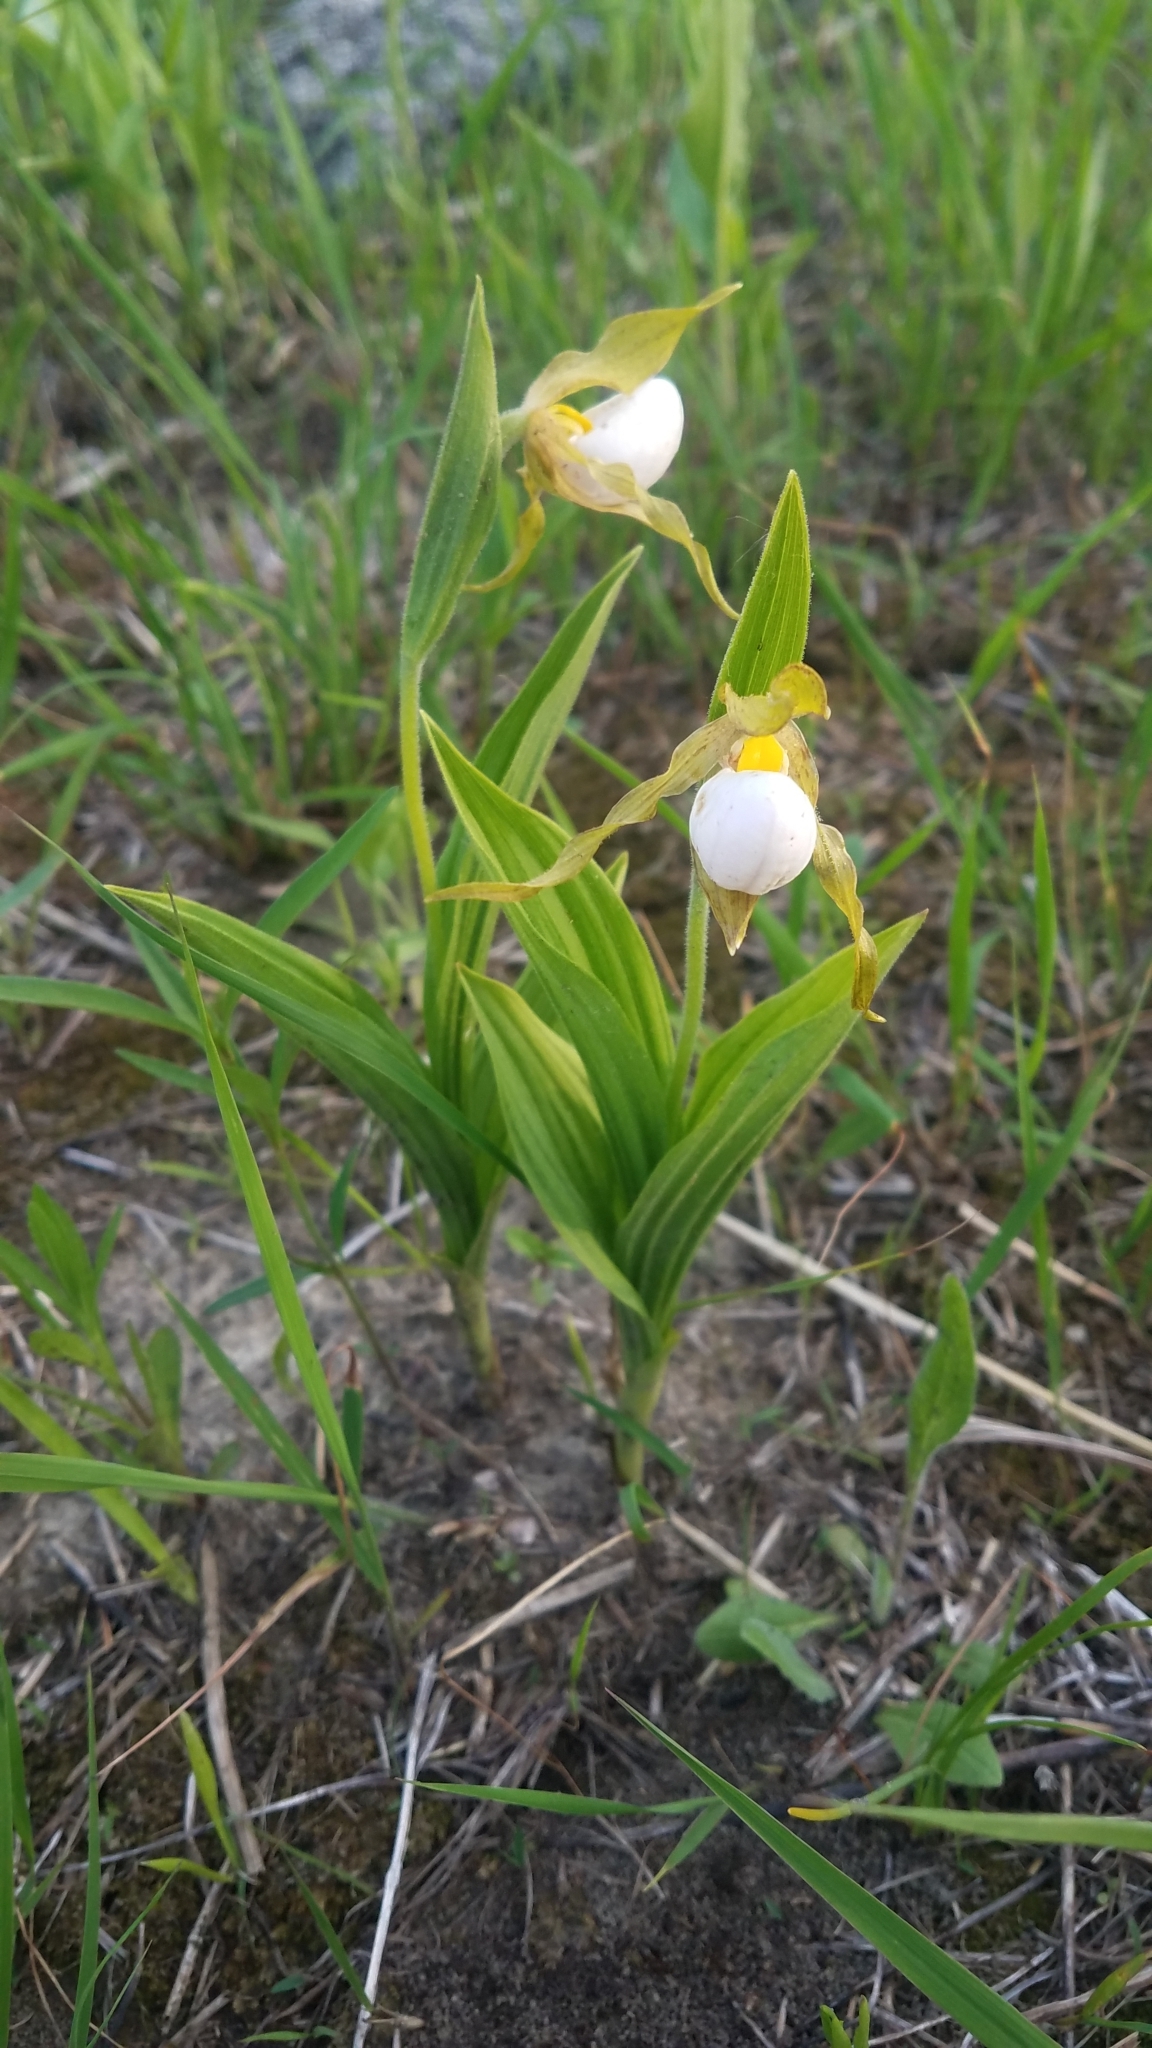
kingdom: Plantae
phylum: Tracheophyta
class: Liliopsida
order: Asparagales
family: Orchidaceae
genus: Cypripedium
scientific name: Cypripedium candidum
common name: White lady's-slipper
